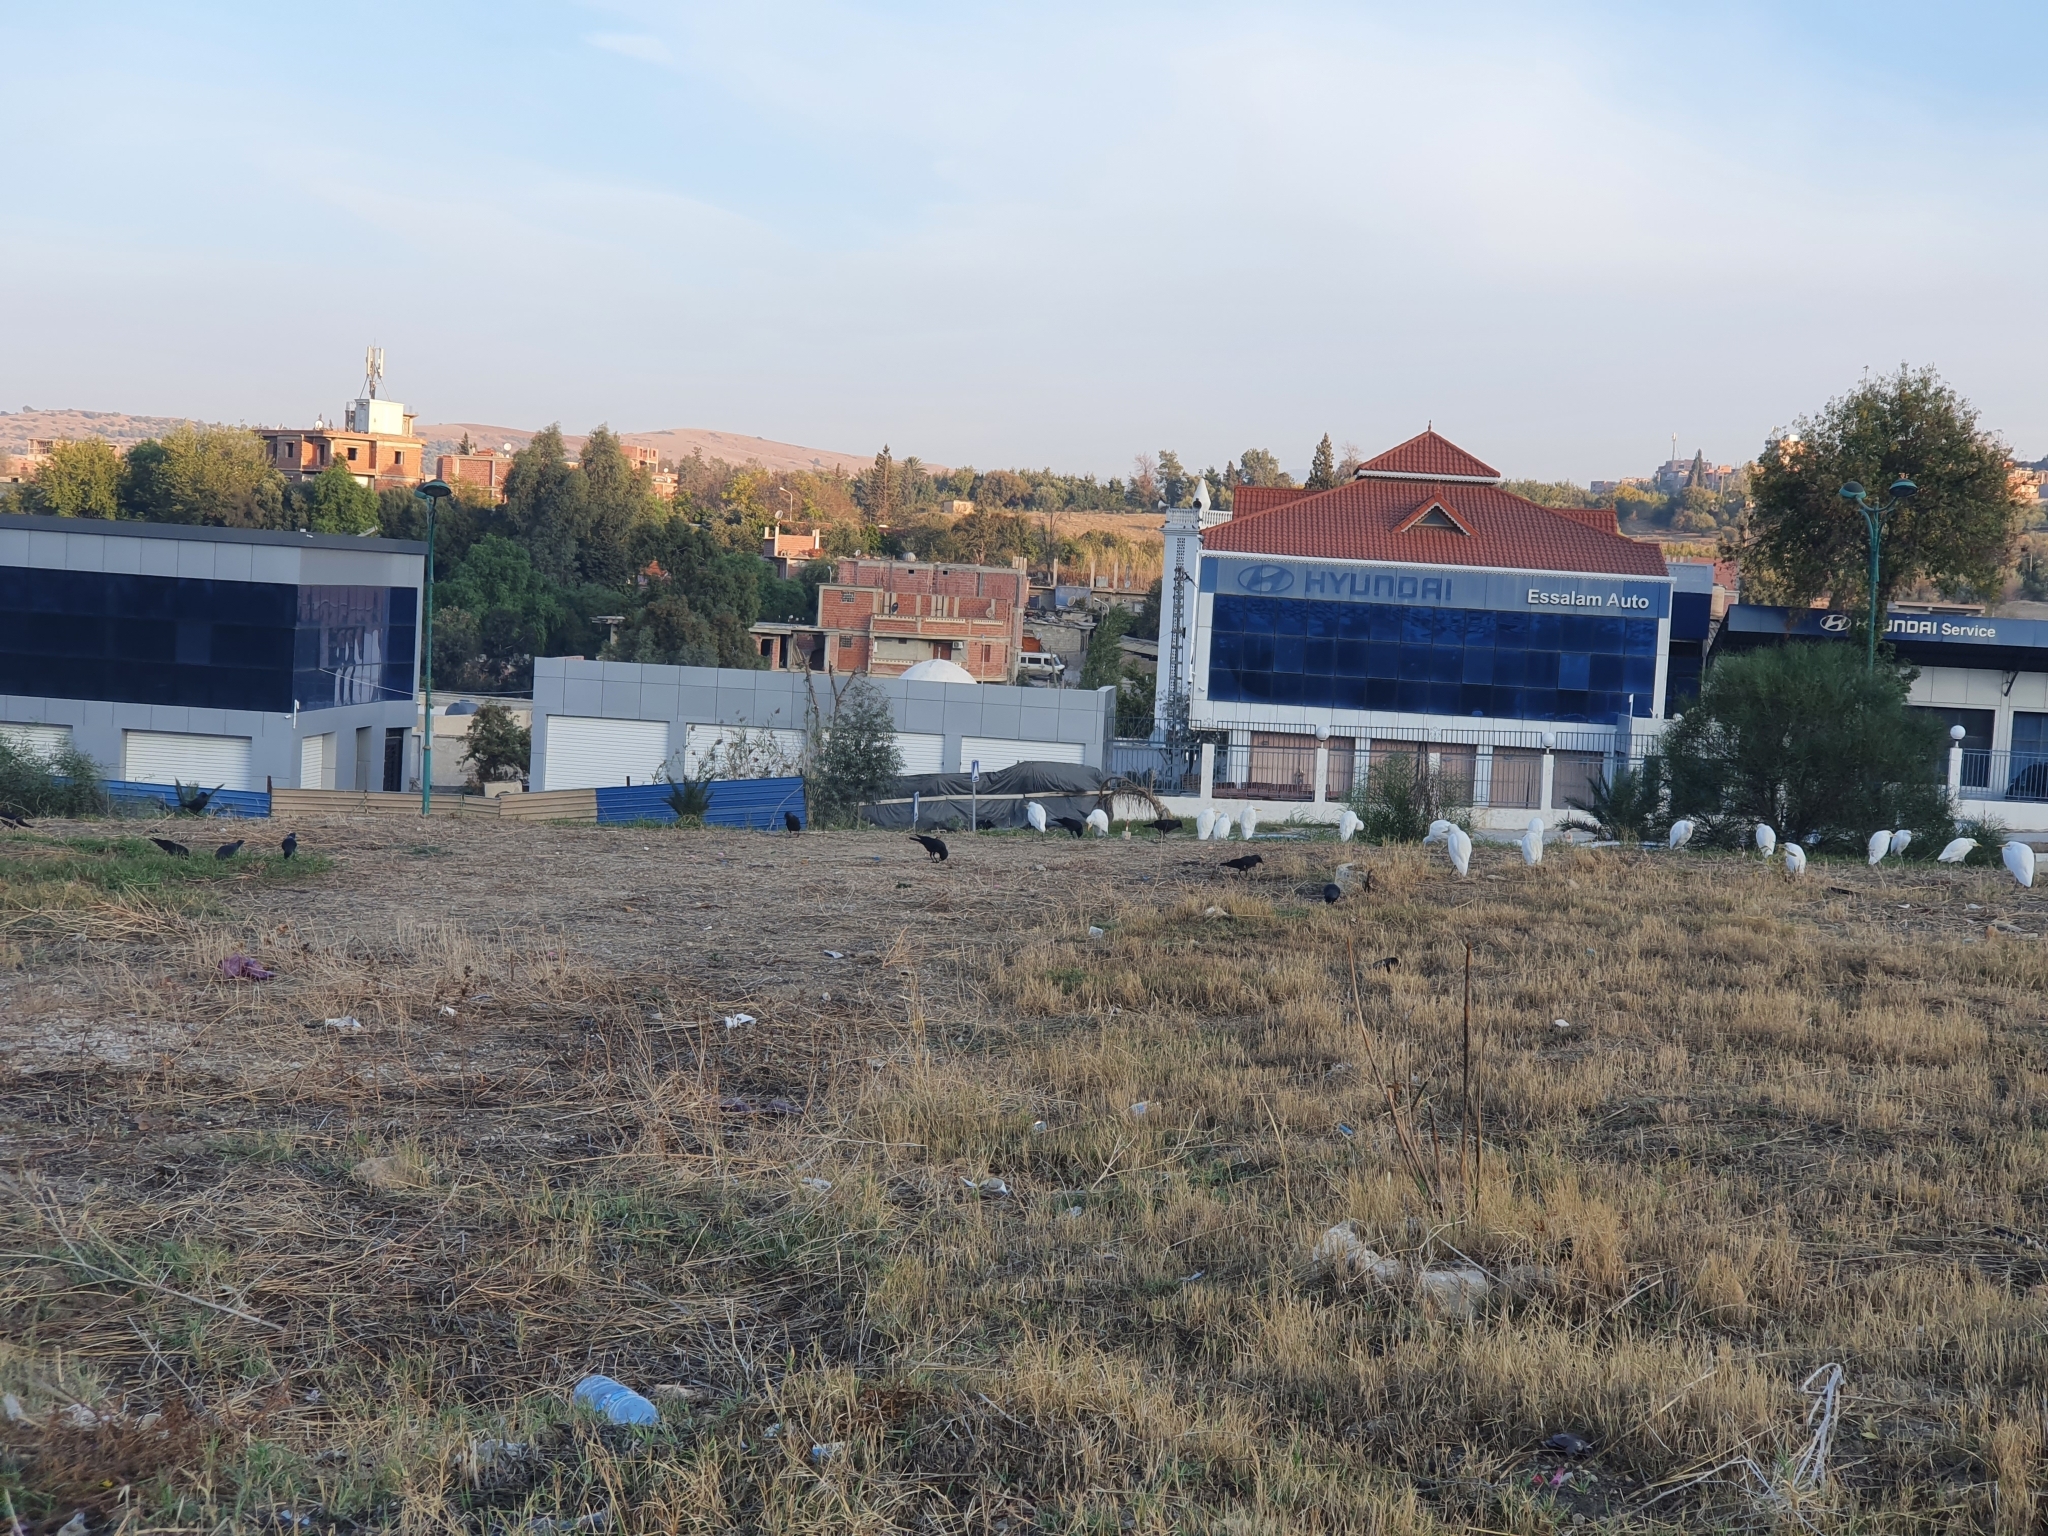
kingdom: Animalia
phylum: Chordata
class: Aves
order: Passeriformes
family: Corvidae
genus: Coloeus
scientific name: Coloeus monedula
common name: Western jackdaw
